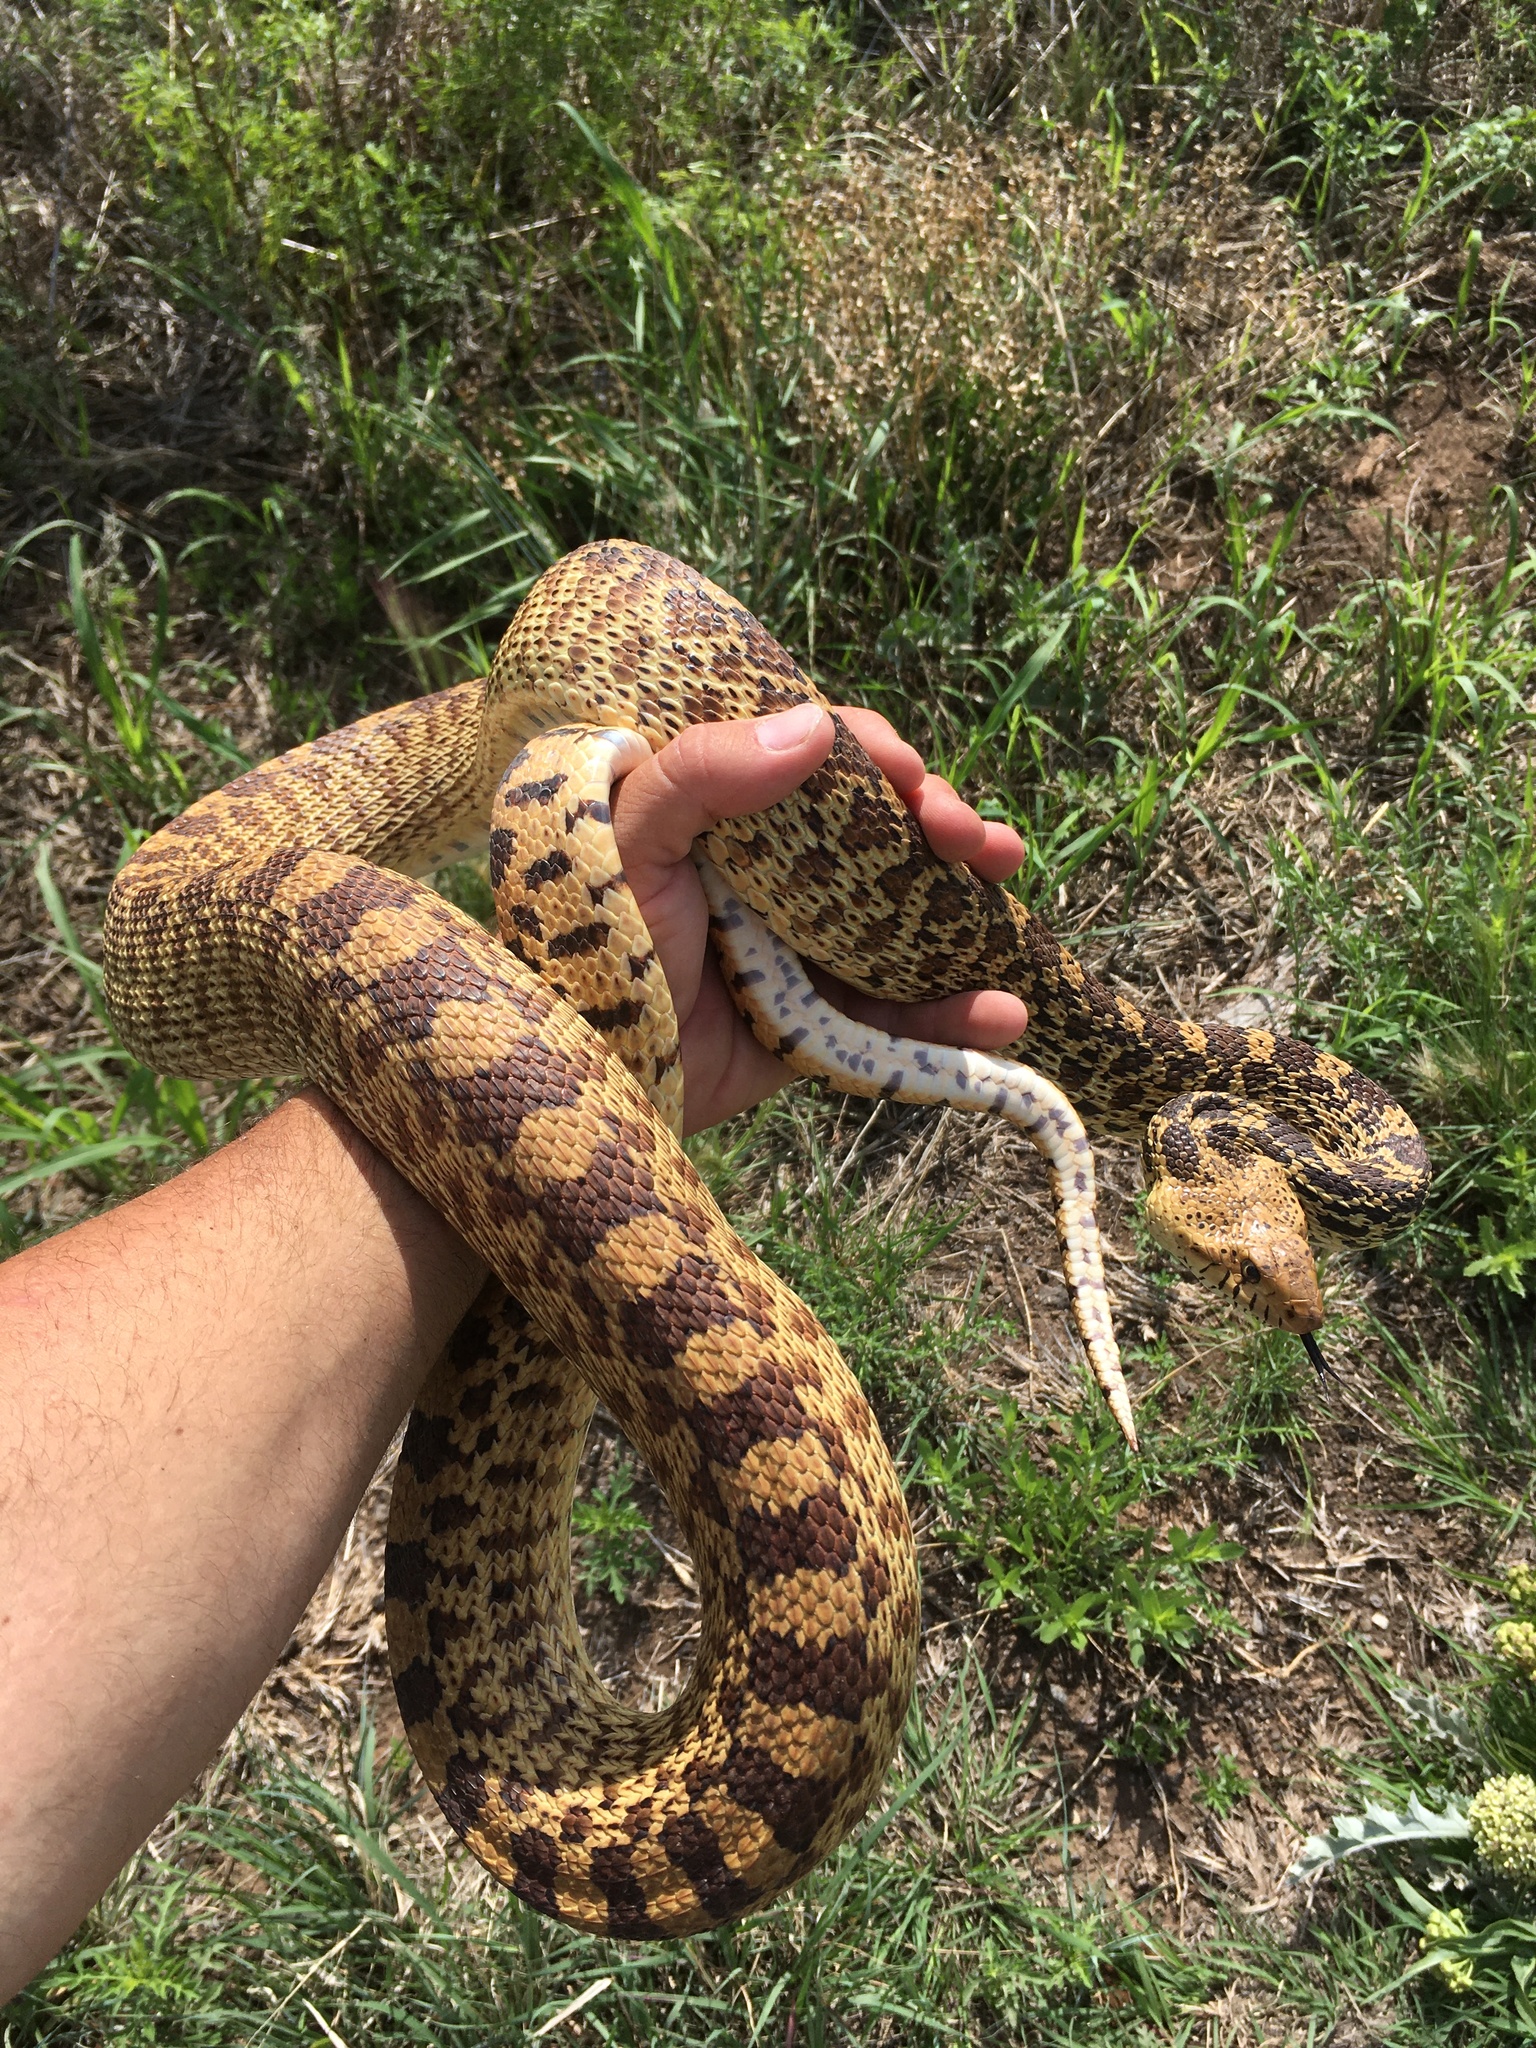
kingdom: Animalia
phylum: Chordata
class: Squamata
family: Colubridae
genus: Pituophis
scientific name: Pituophis catenifer
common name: Gopher snake
